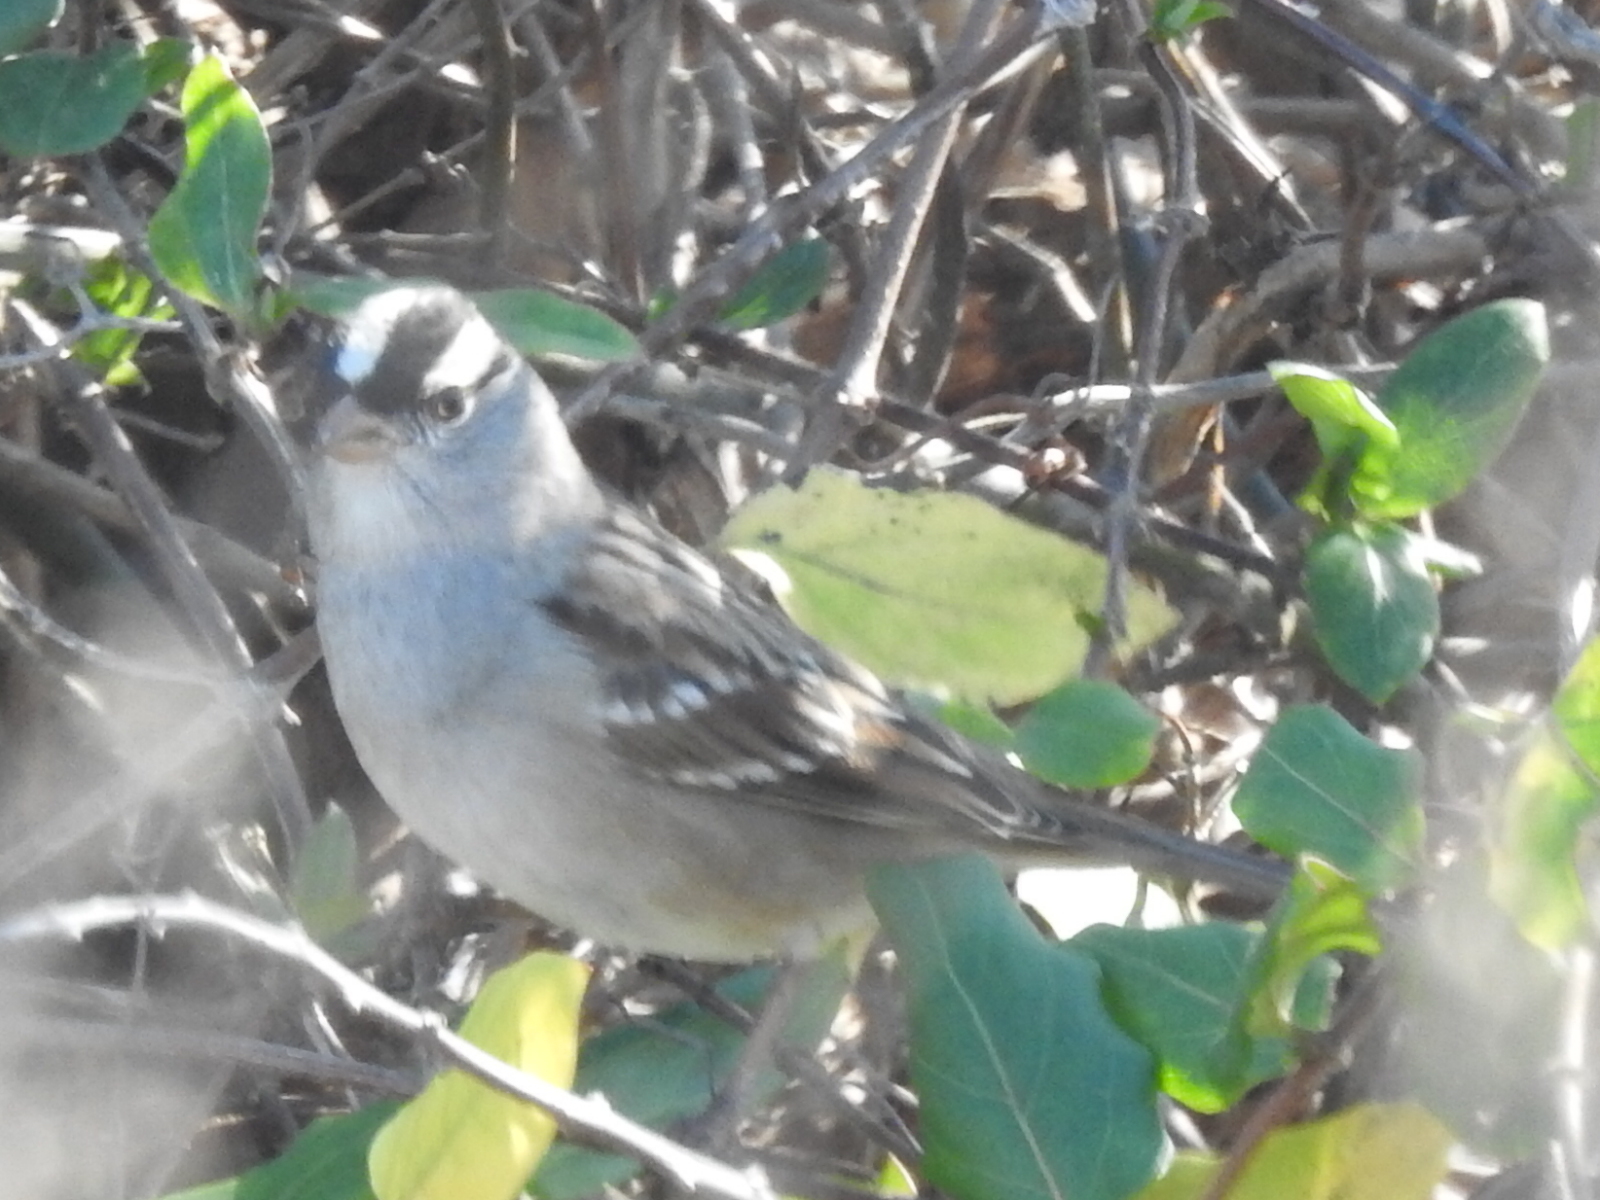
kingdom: Animalia
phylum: Chordata
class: Aves
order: Passeriformes
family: Passerellidae
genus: Zonotrichia
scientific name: Zonotrichia leucophrys
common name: White-crowned sparrow
